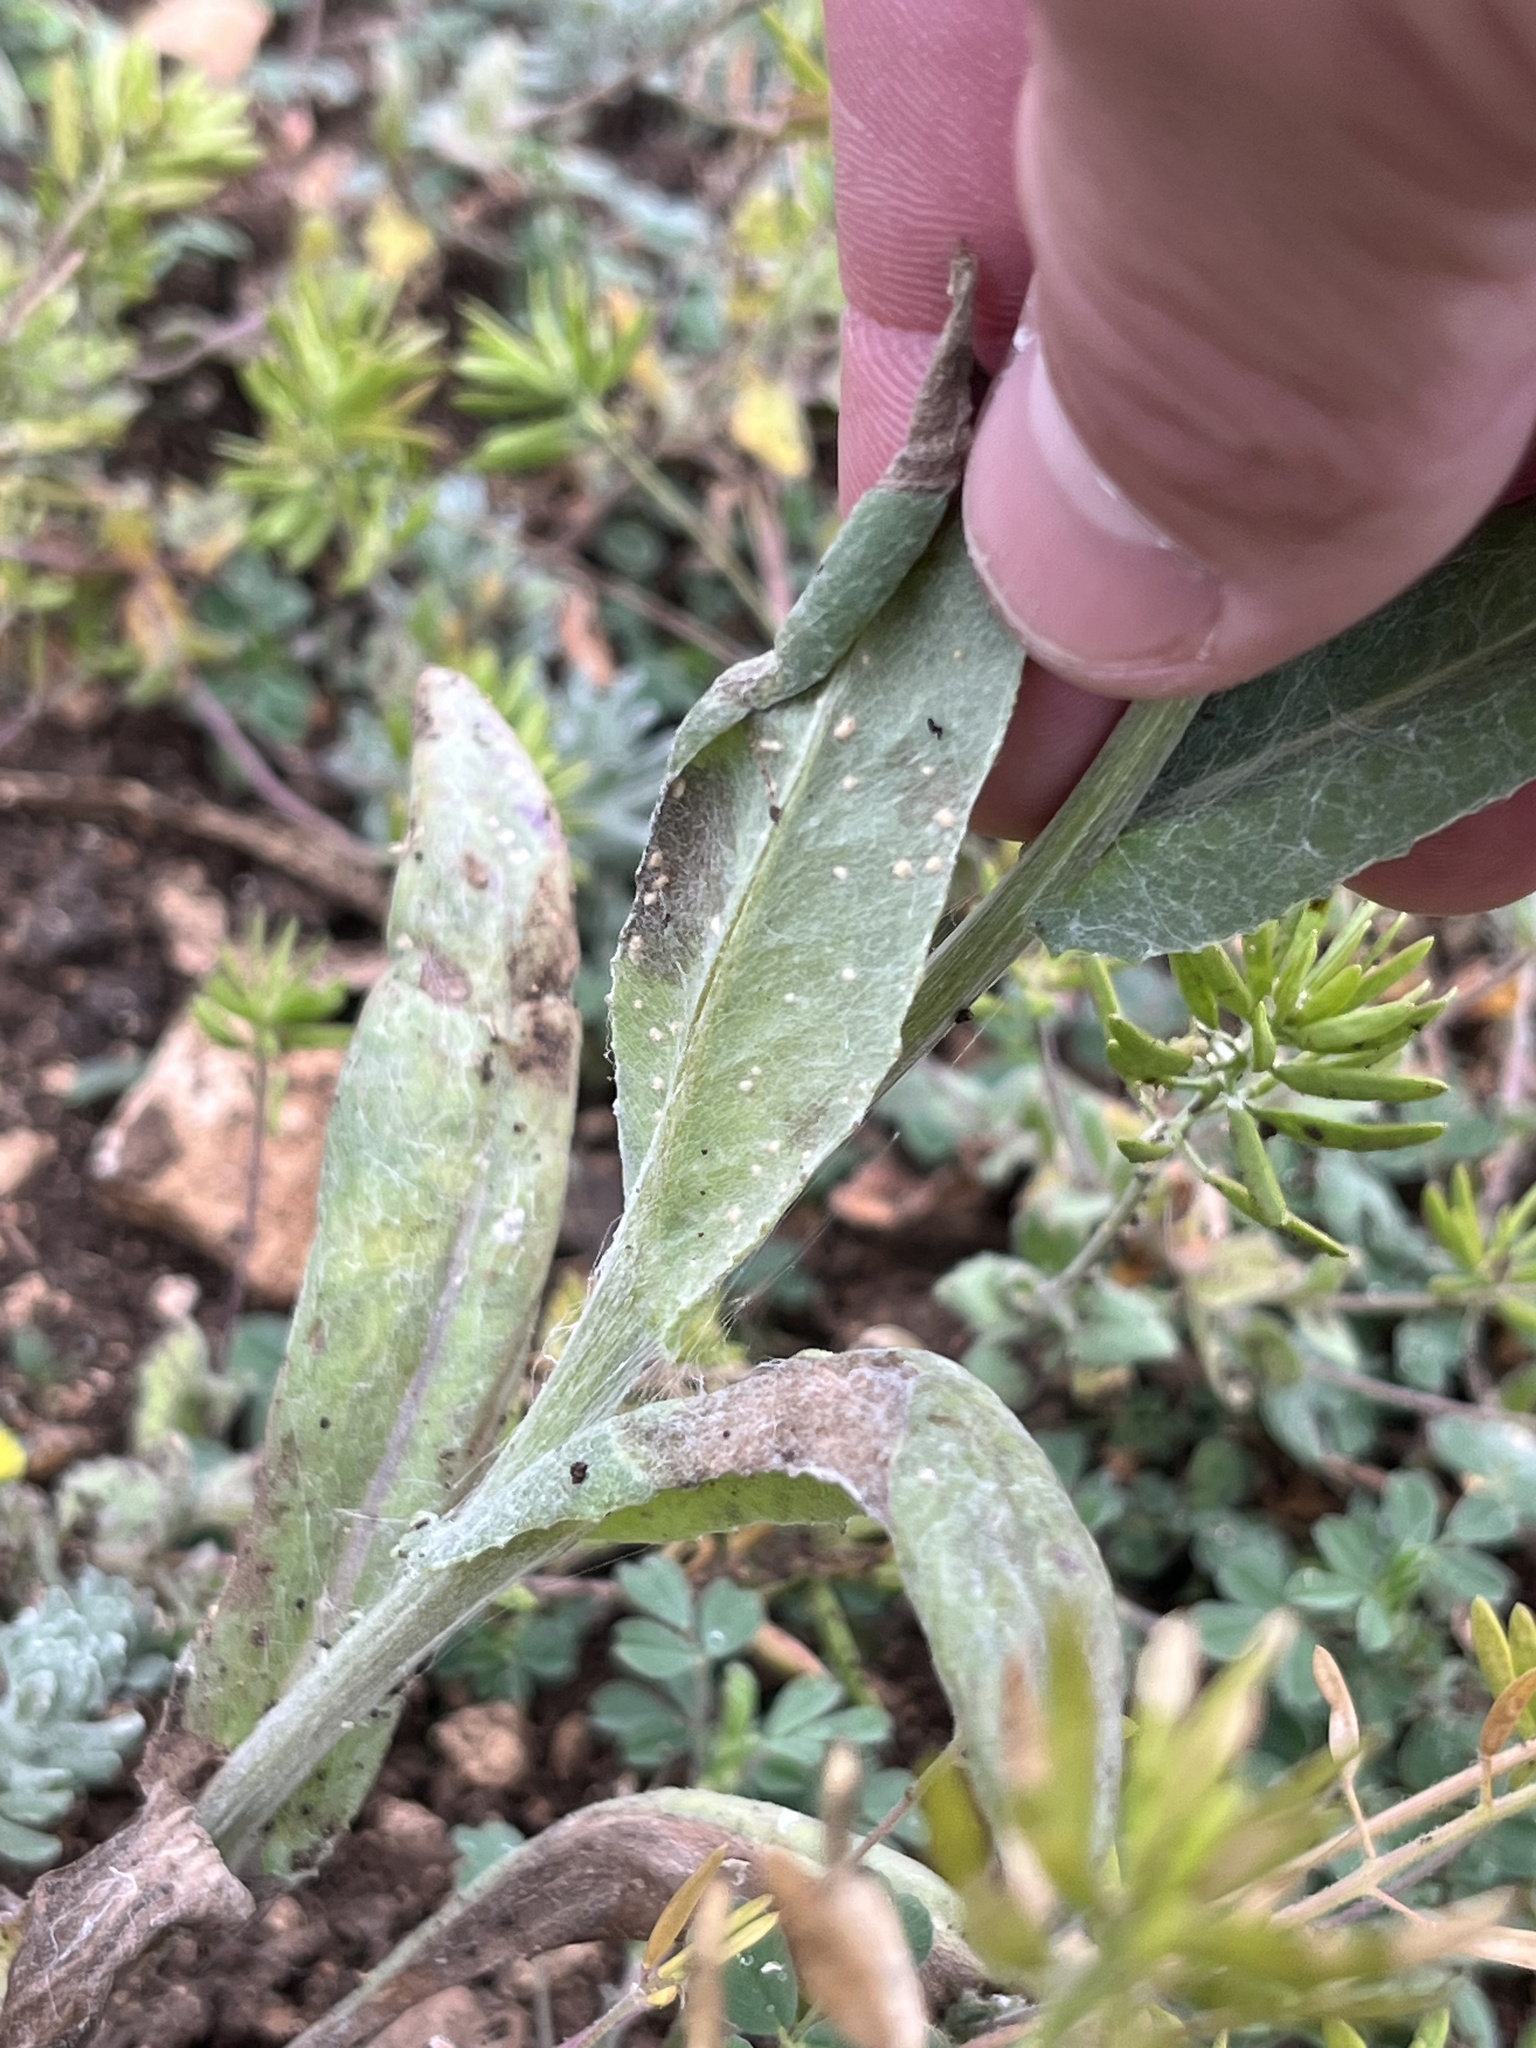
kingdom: Plantae
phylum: Tracheophyta
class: Magnoliopsida
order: Asterales
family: Asteraceae
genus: Senecio
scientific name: Senecio ampullaceus
